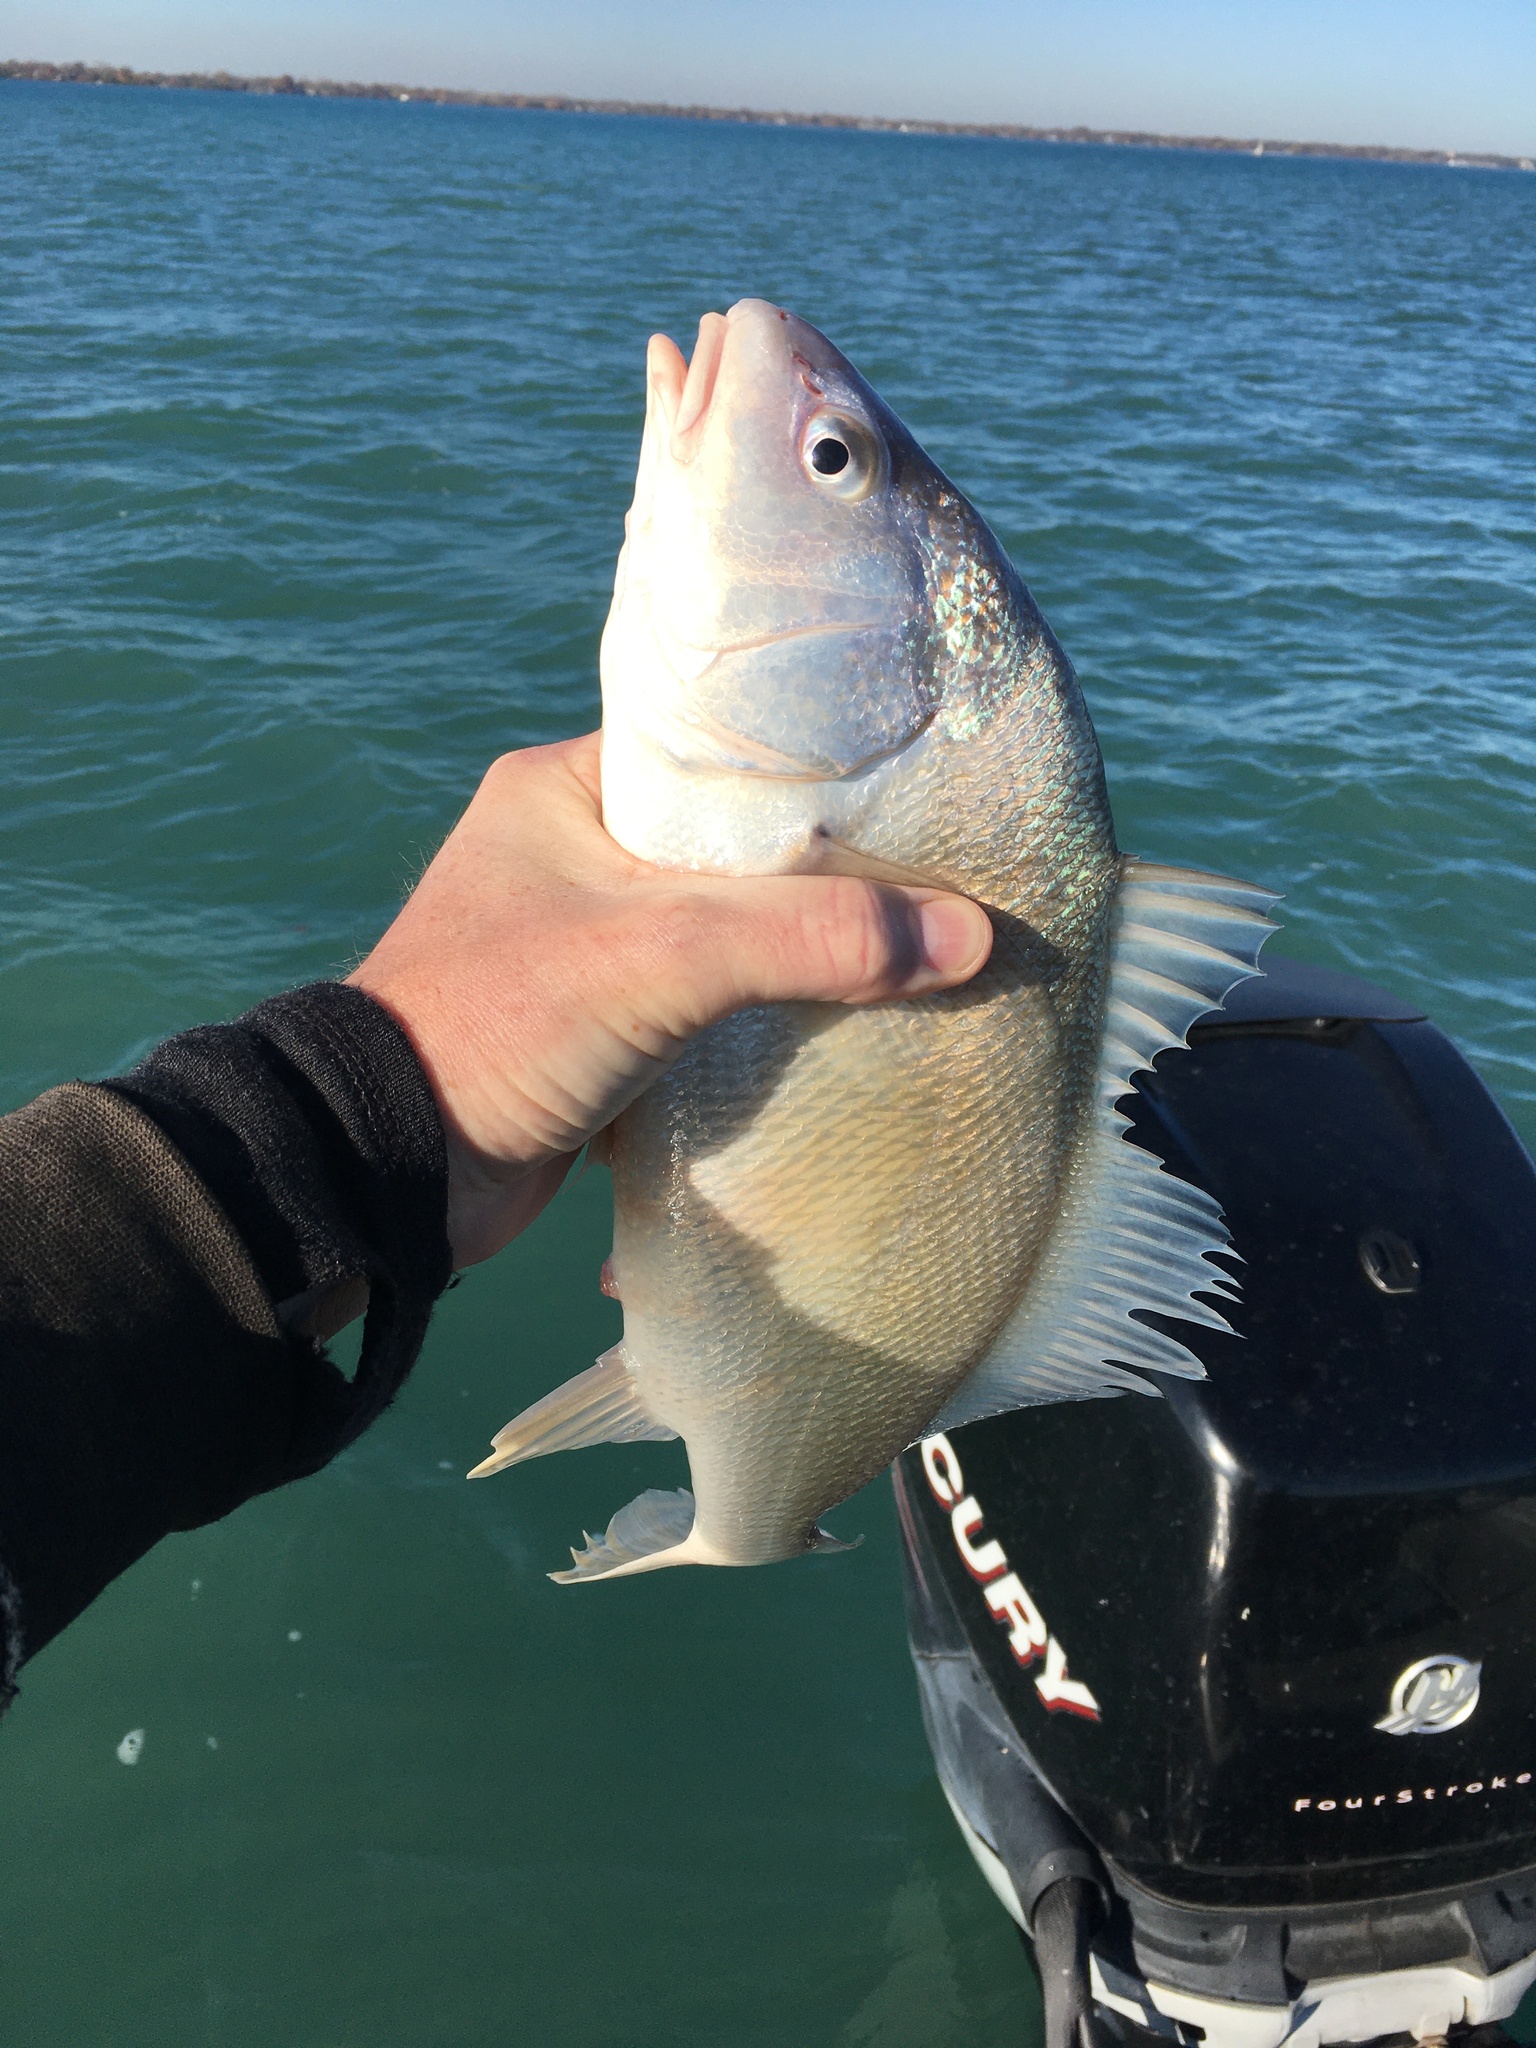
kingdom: Animalia
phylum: Chordata
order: Perciformes
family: Sciaenidae
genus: Aplodinotus
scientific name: Aplodinotus grunniens
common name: Freshwater drum
